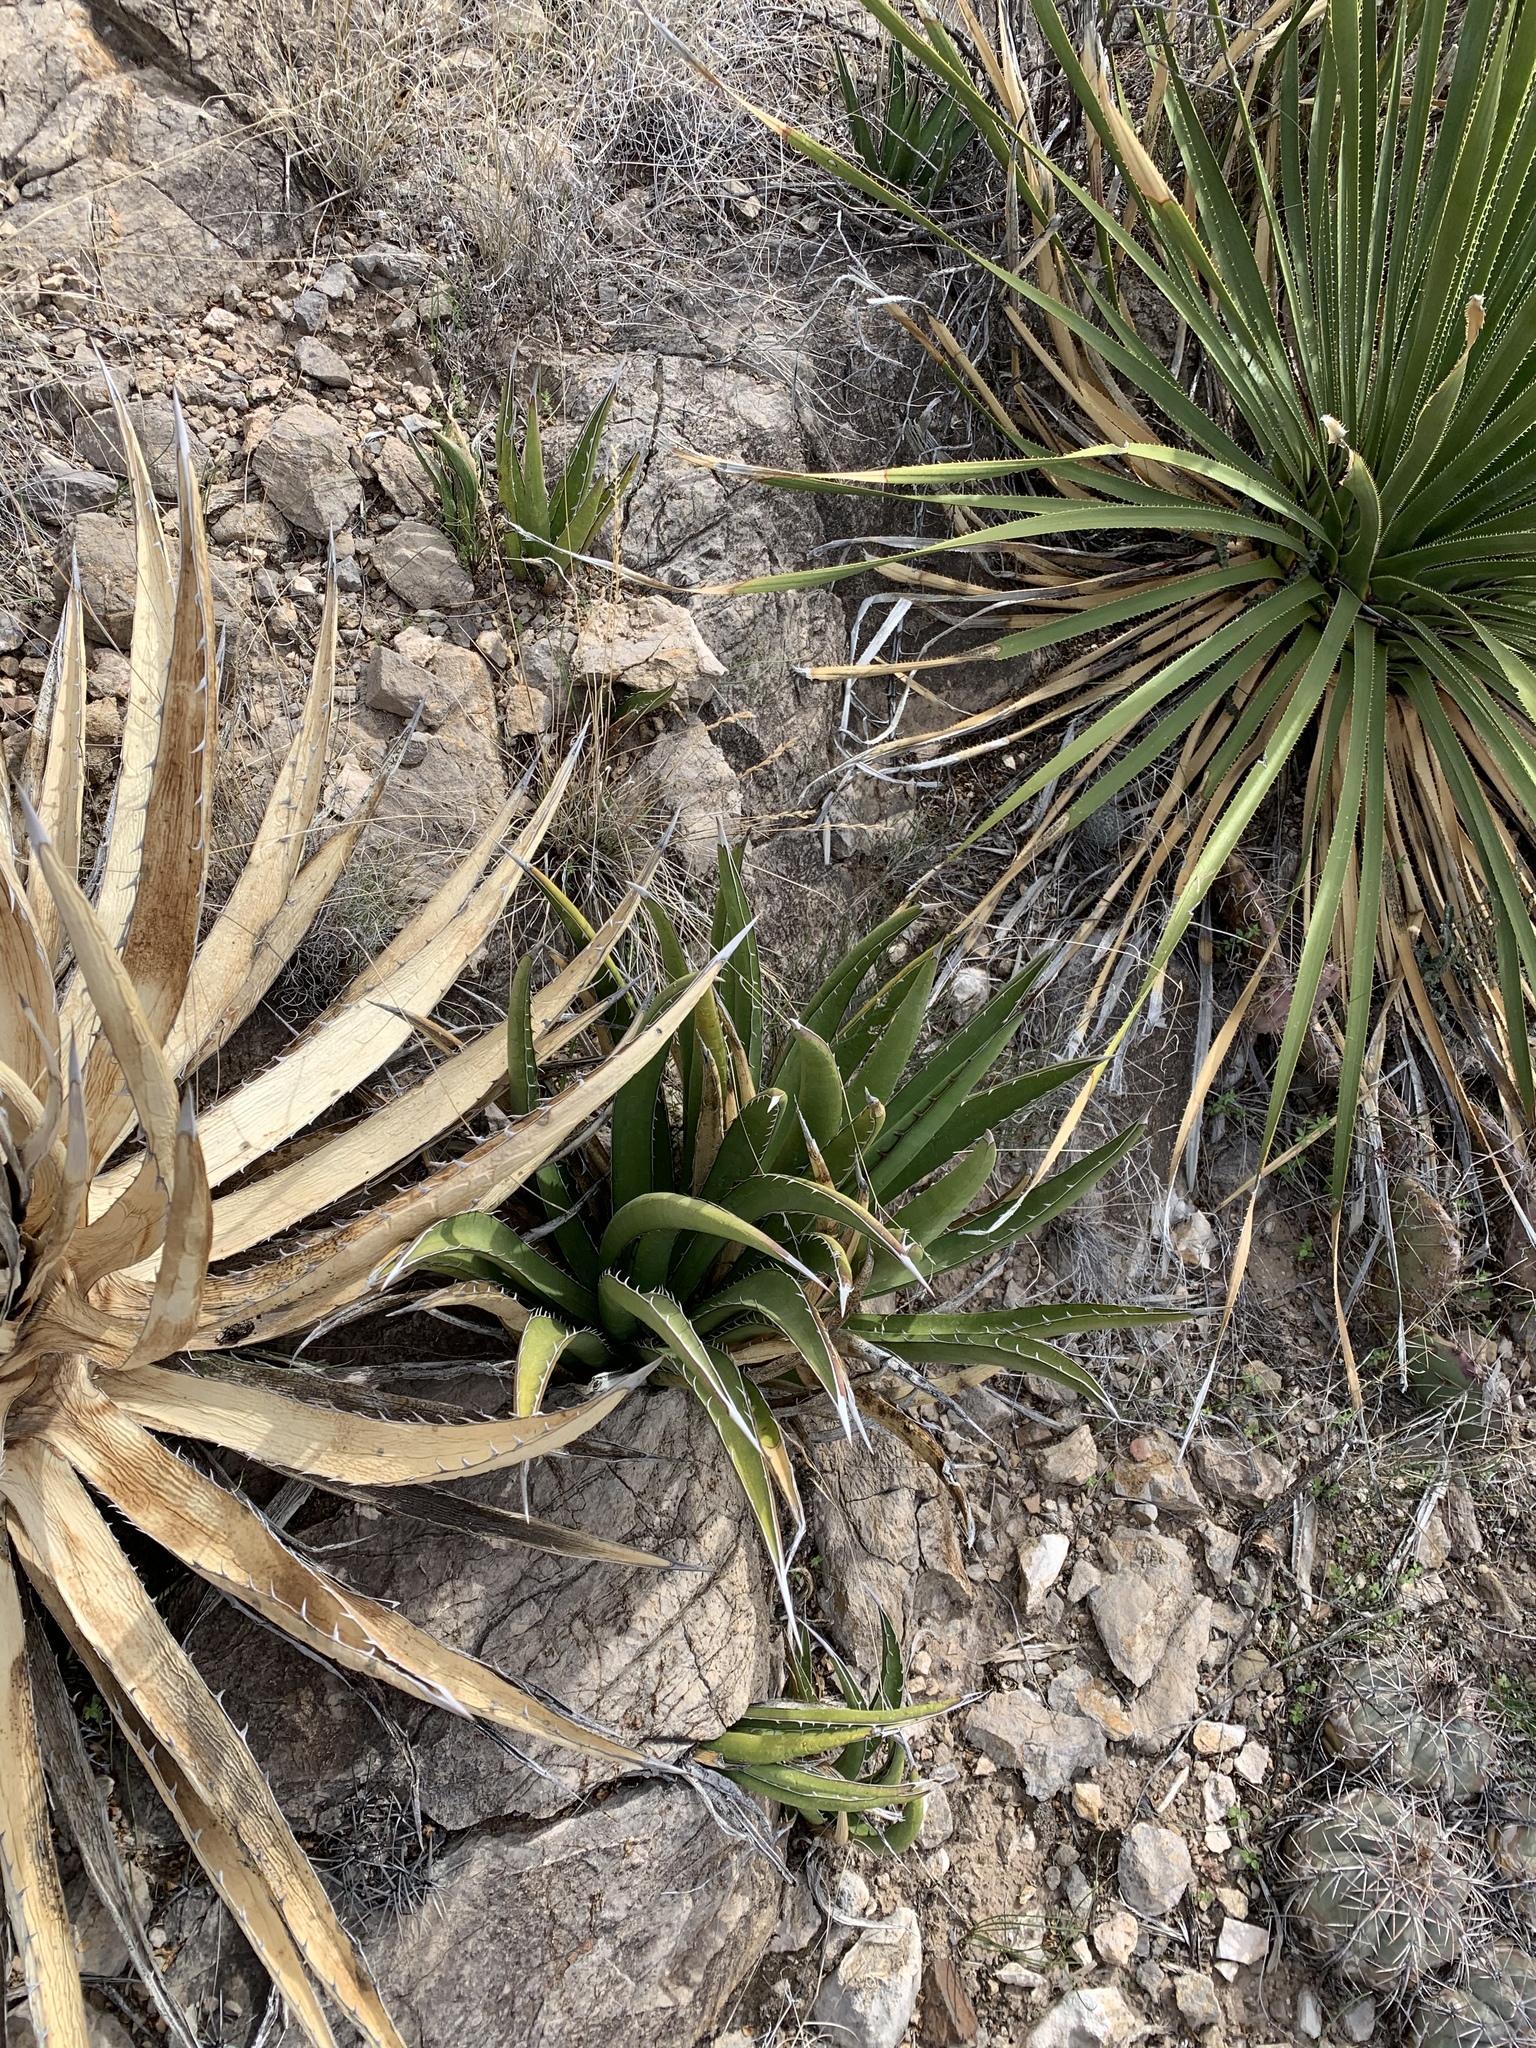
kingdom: Plantae
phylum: Tracheophyta
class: Liliopsida
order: Asparagales
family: Asparagaceae
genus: Agave
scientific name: Agave lechuguilla
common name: Lecheguilla agave
